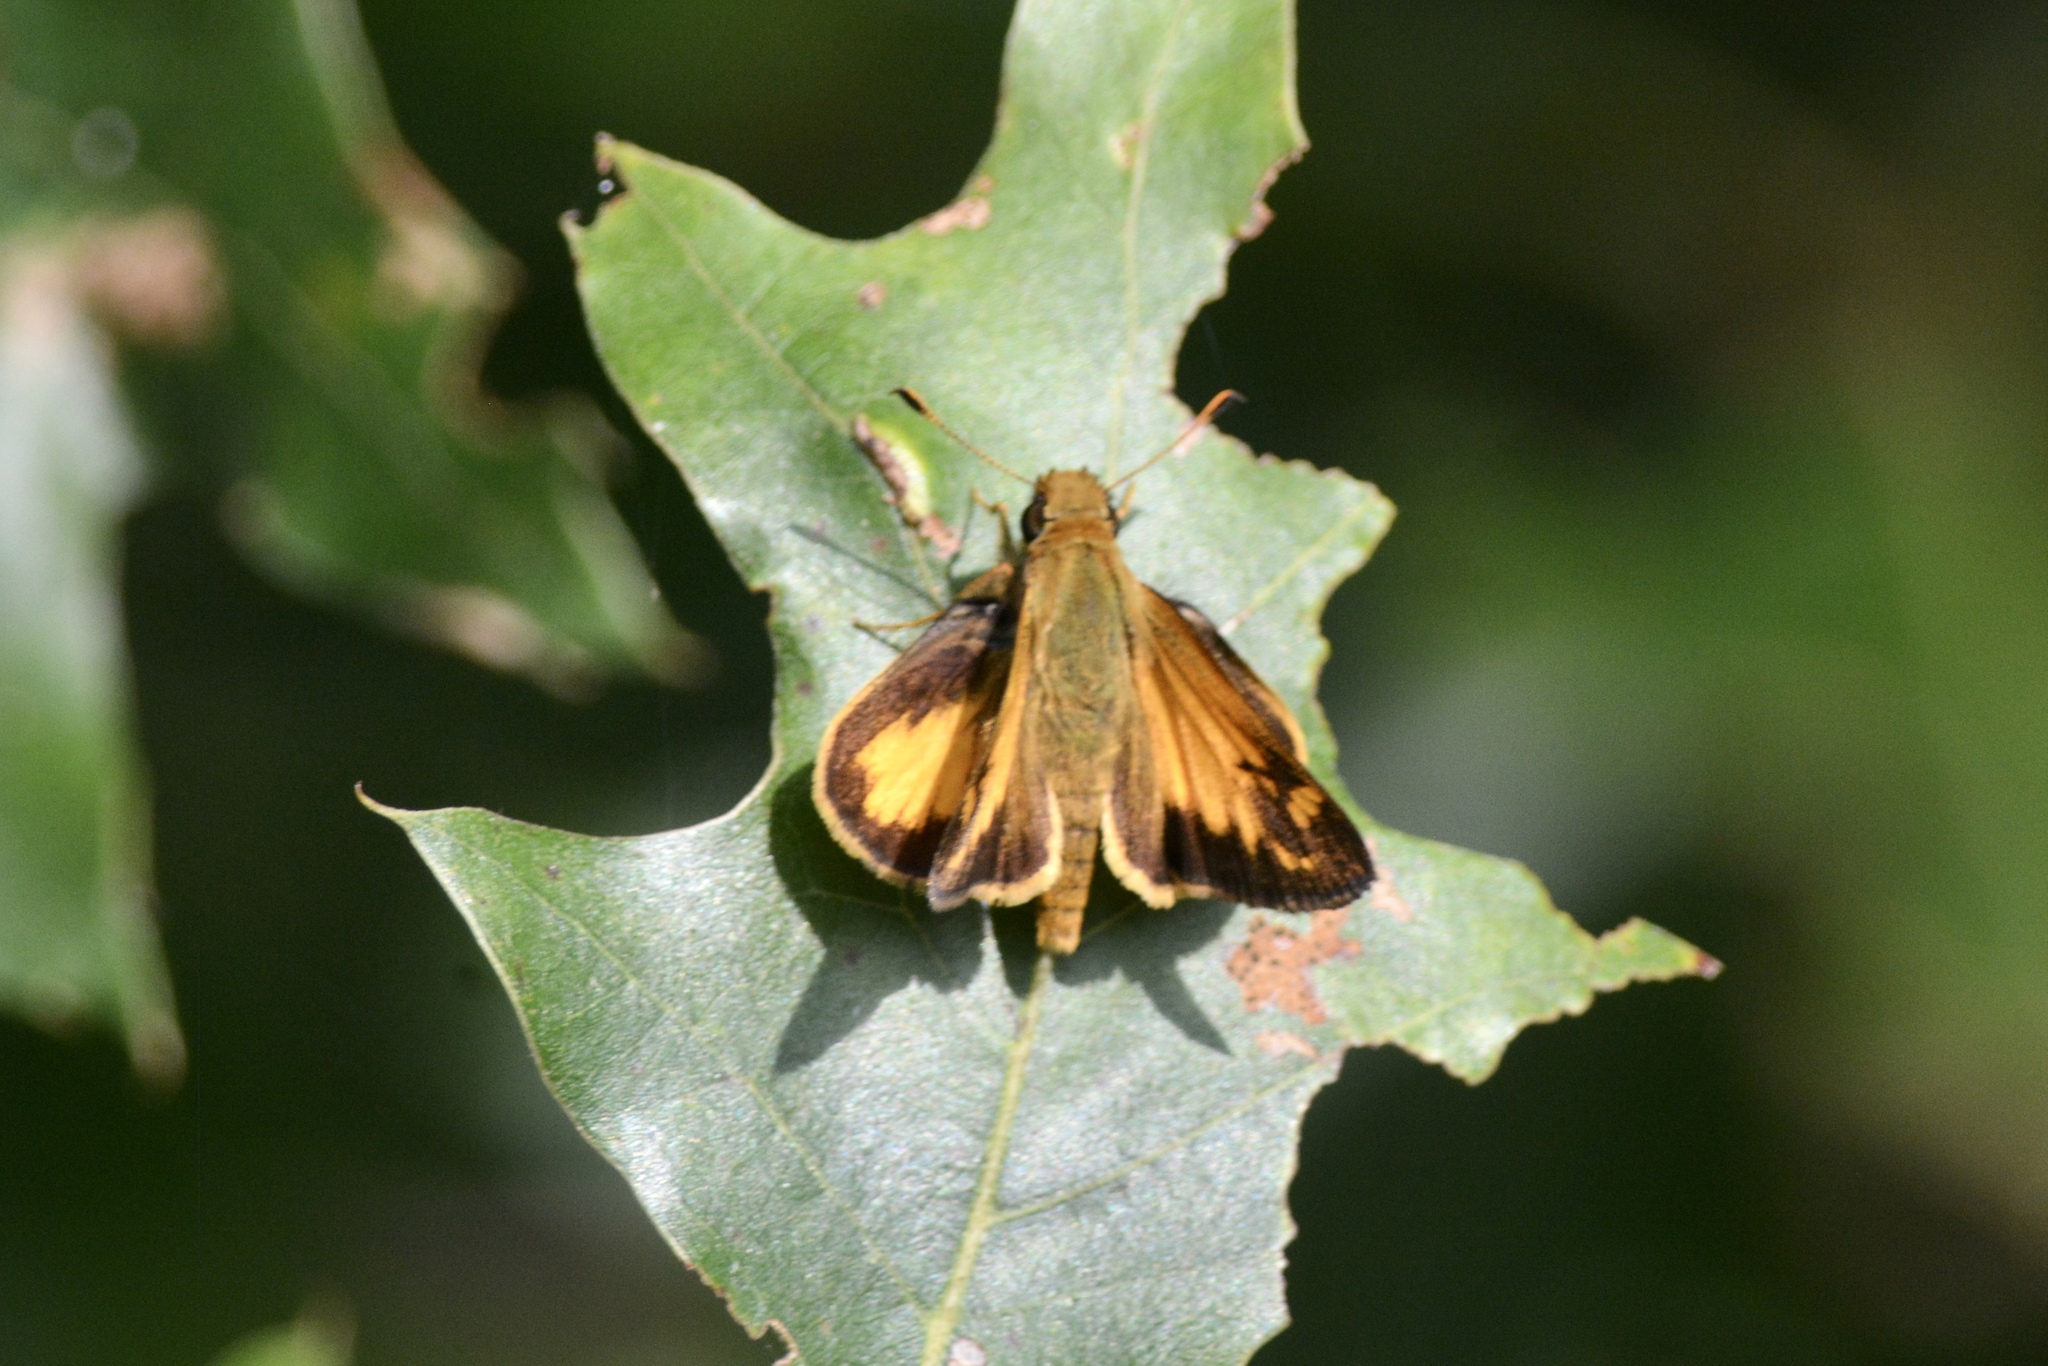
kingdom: Animalia
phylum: Arthropoda
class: Insecta
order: Lepidoptera
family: Hesperiidae
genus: Lon
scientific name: Lon zabulon
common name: Zabulon skipper
